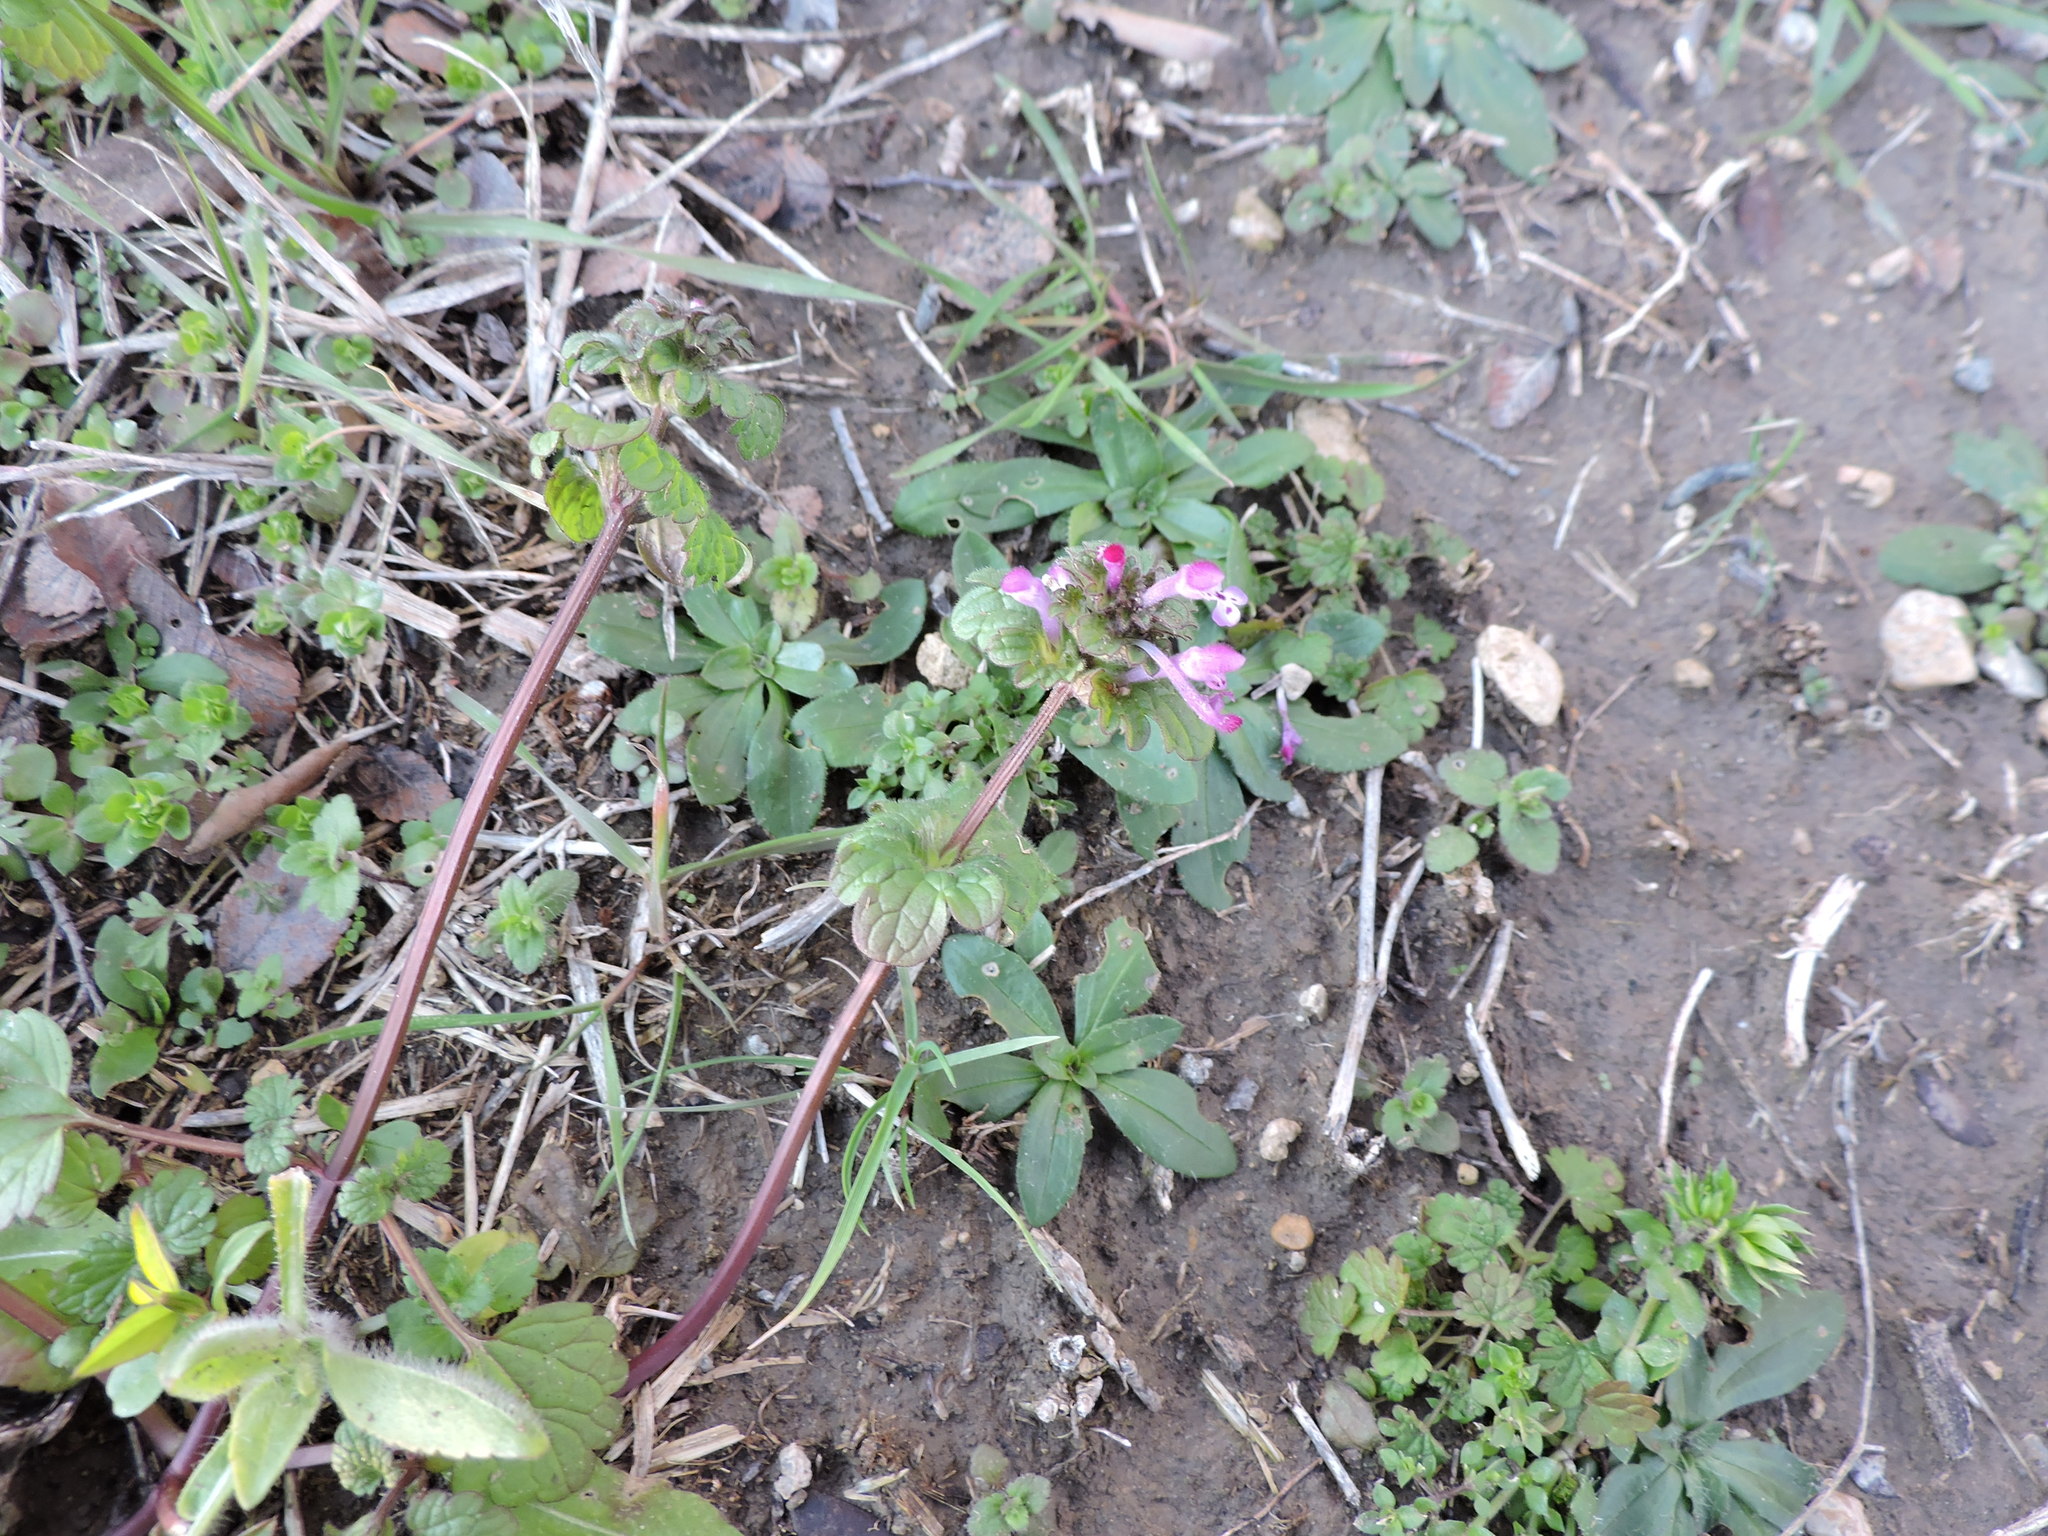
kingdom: Plantae
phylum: Tracheophyta
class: Magnoliopsida
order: Lamiales
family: Lamiaceae
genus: Lamium
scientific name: Lamium amplexicaule
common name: Henbit dead-nettle
